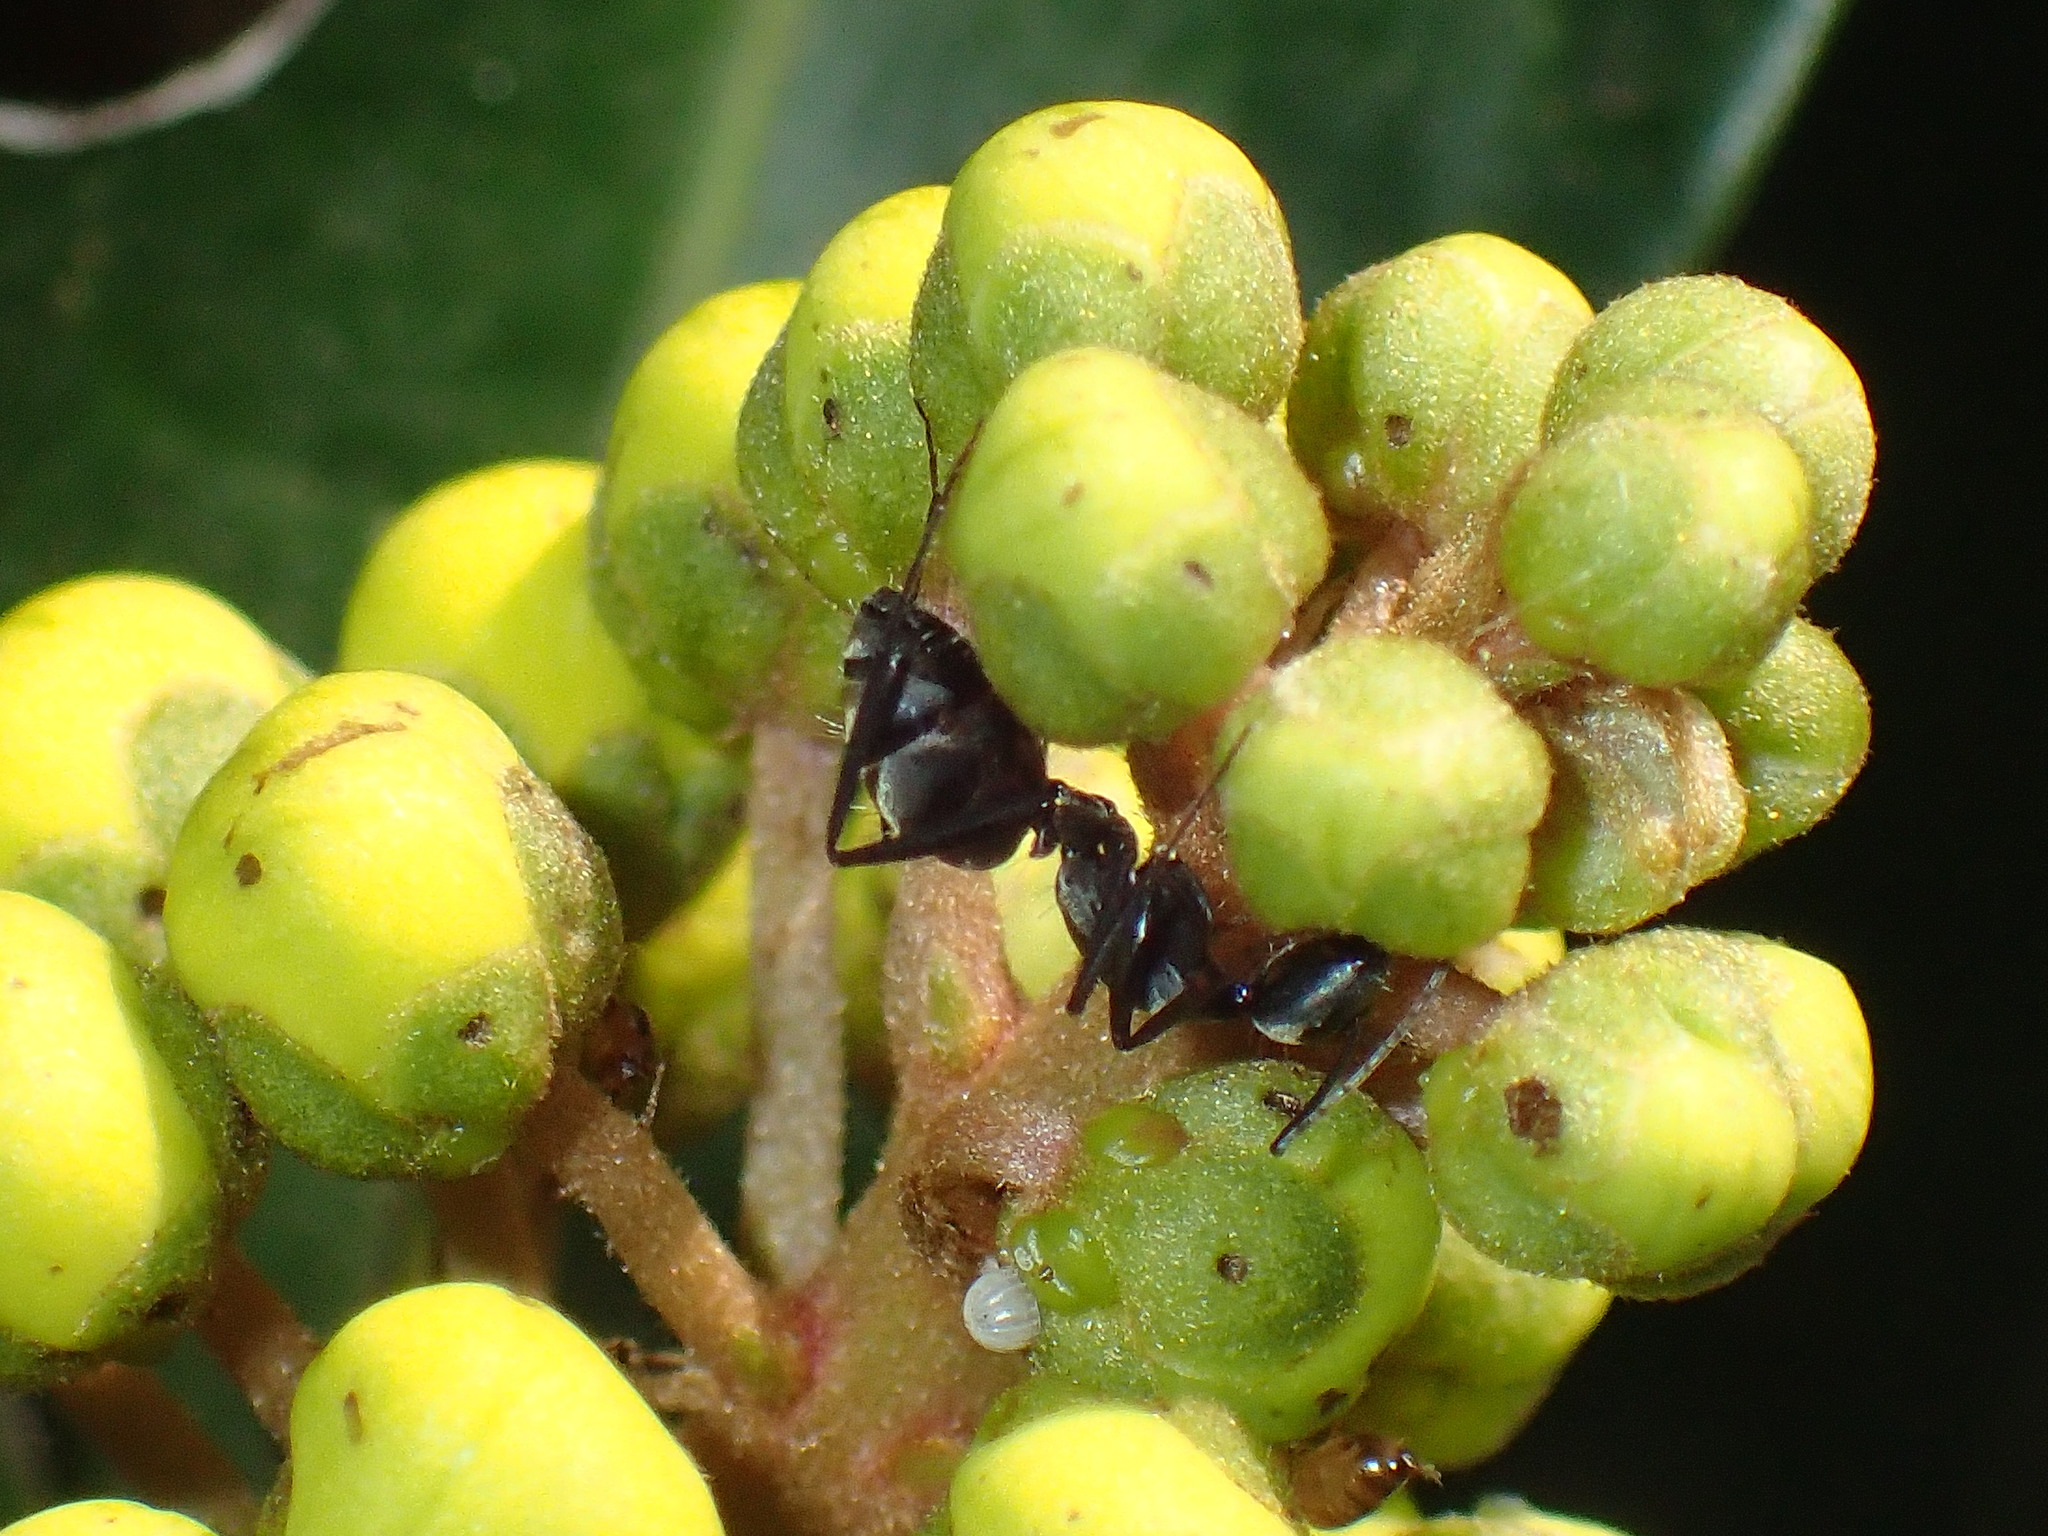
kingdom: Animalia
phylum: Arthropoda
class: Insecta
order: Hymenoptera
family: Formicidae
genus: Camponotus
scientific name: Camponotus cinctellus
